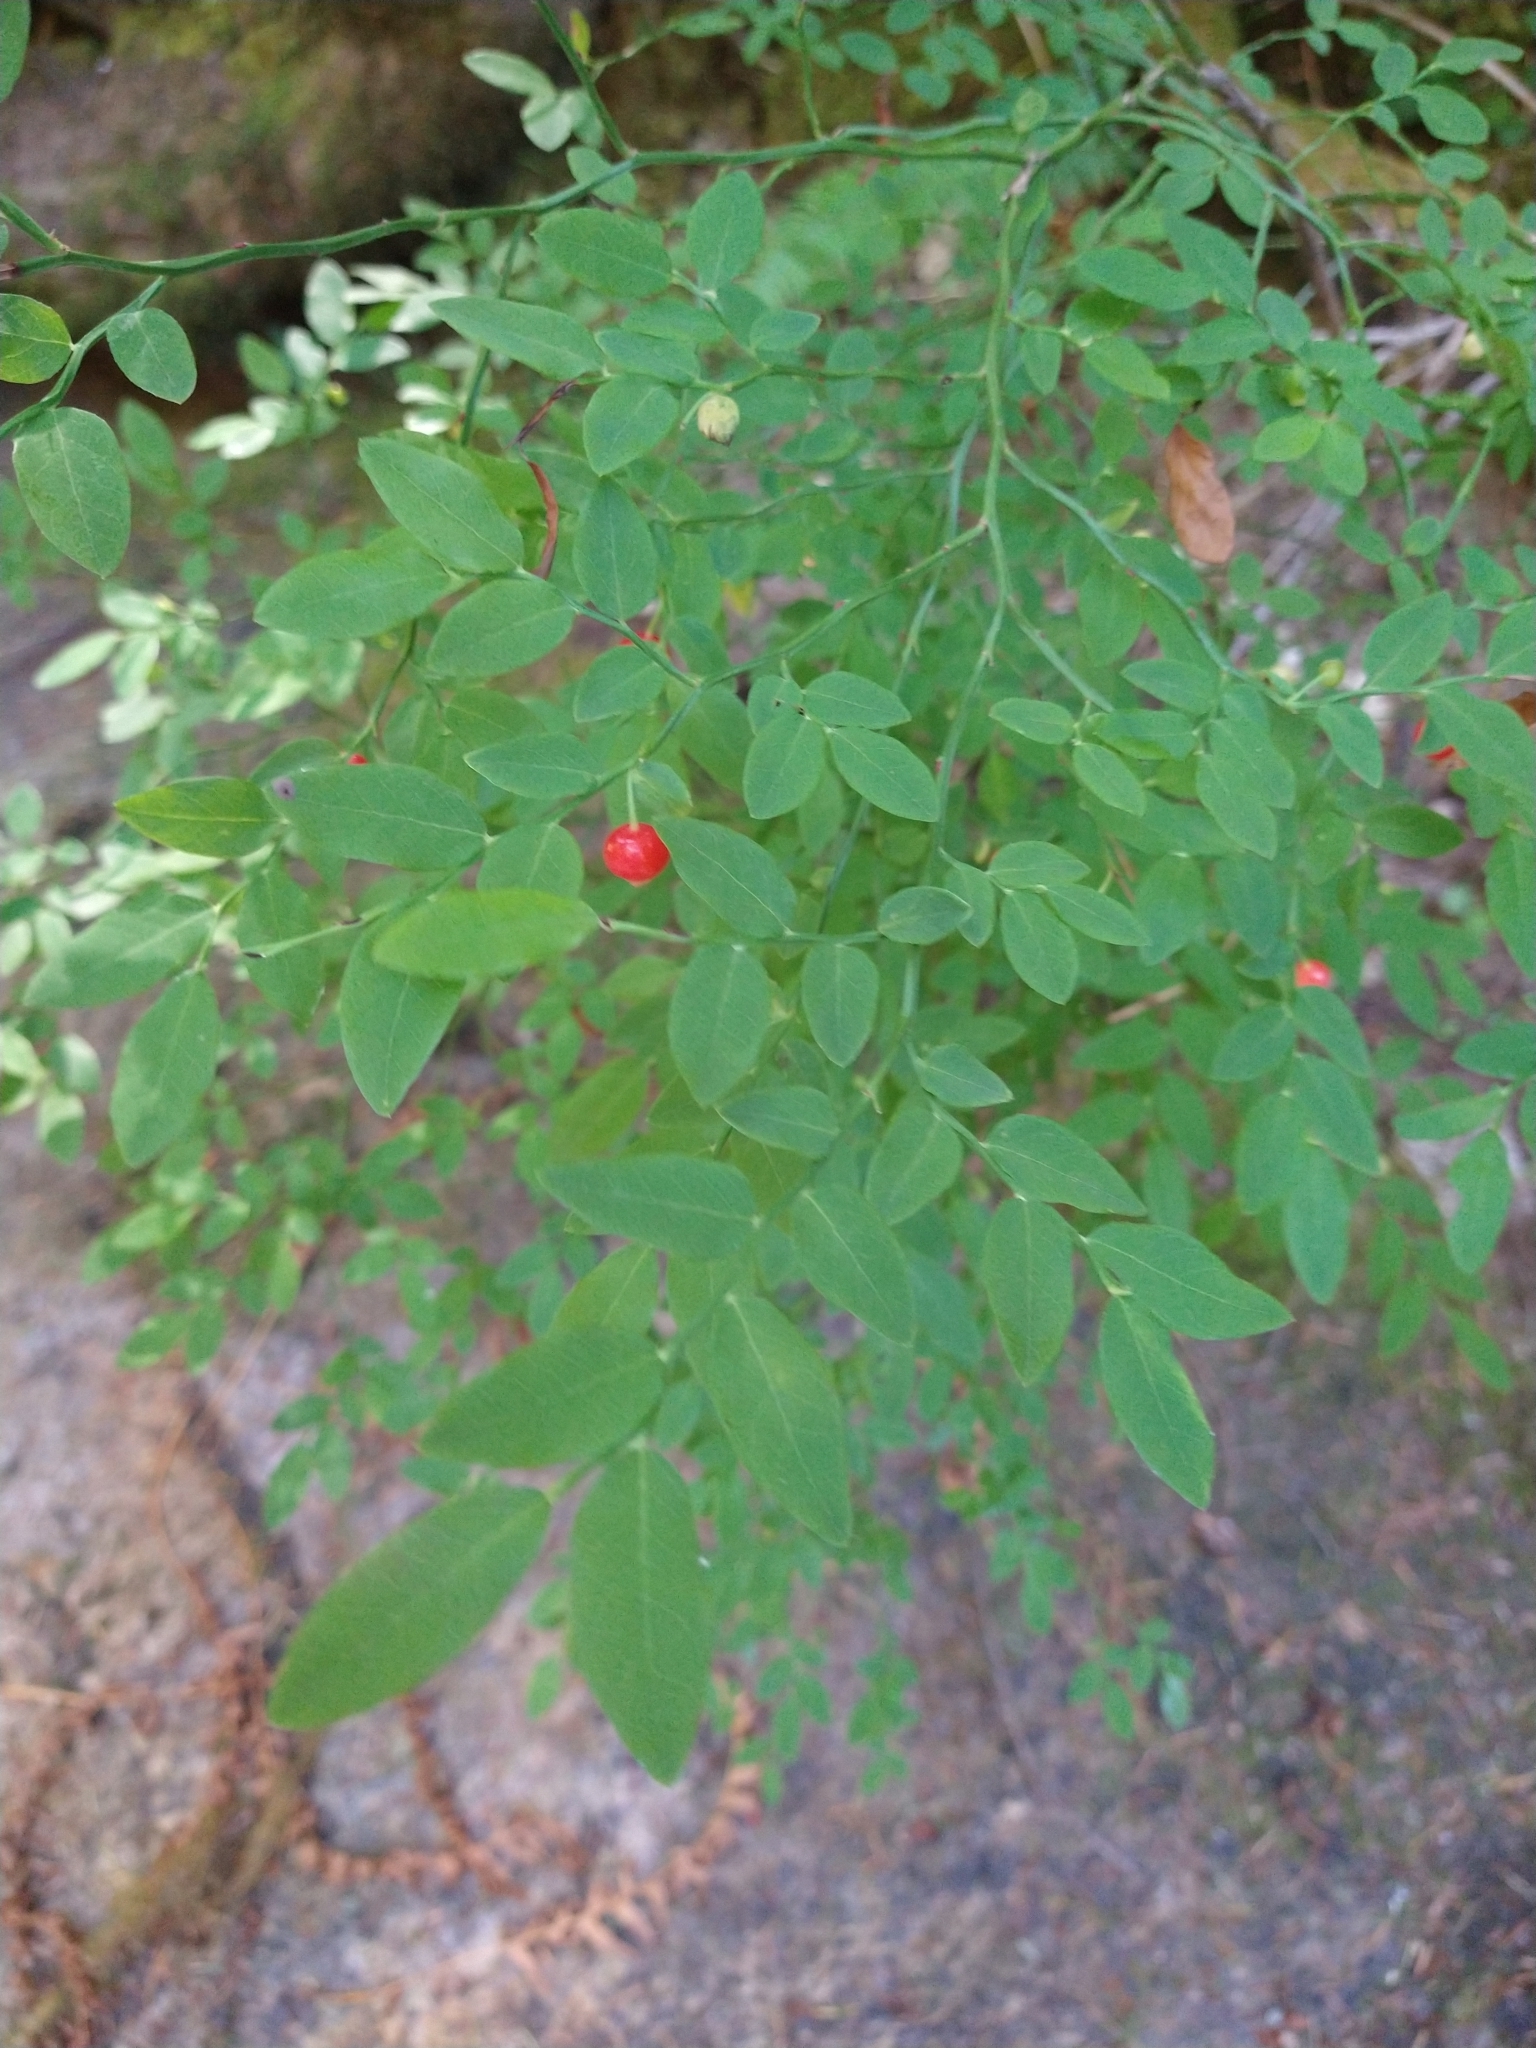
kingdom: Plantae
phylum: Tracheophyta
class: Magnoliopsida
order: Ericales
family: Ericaceae
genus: Vaccinium
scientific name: Vaccinium parvifolium
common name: Red-huckleberry
